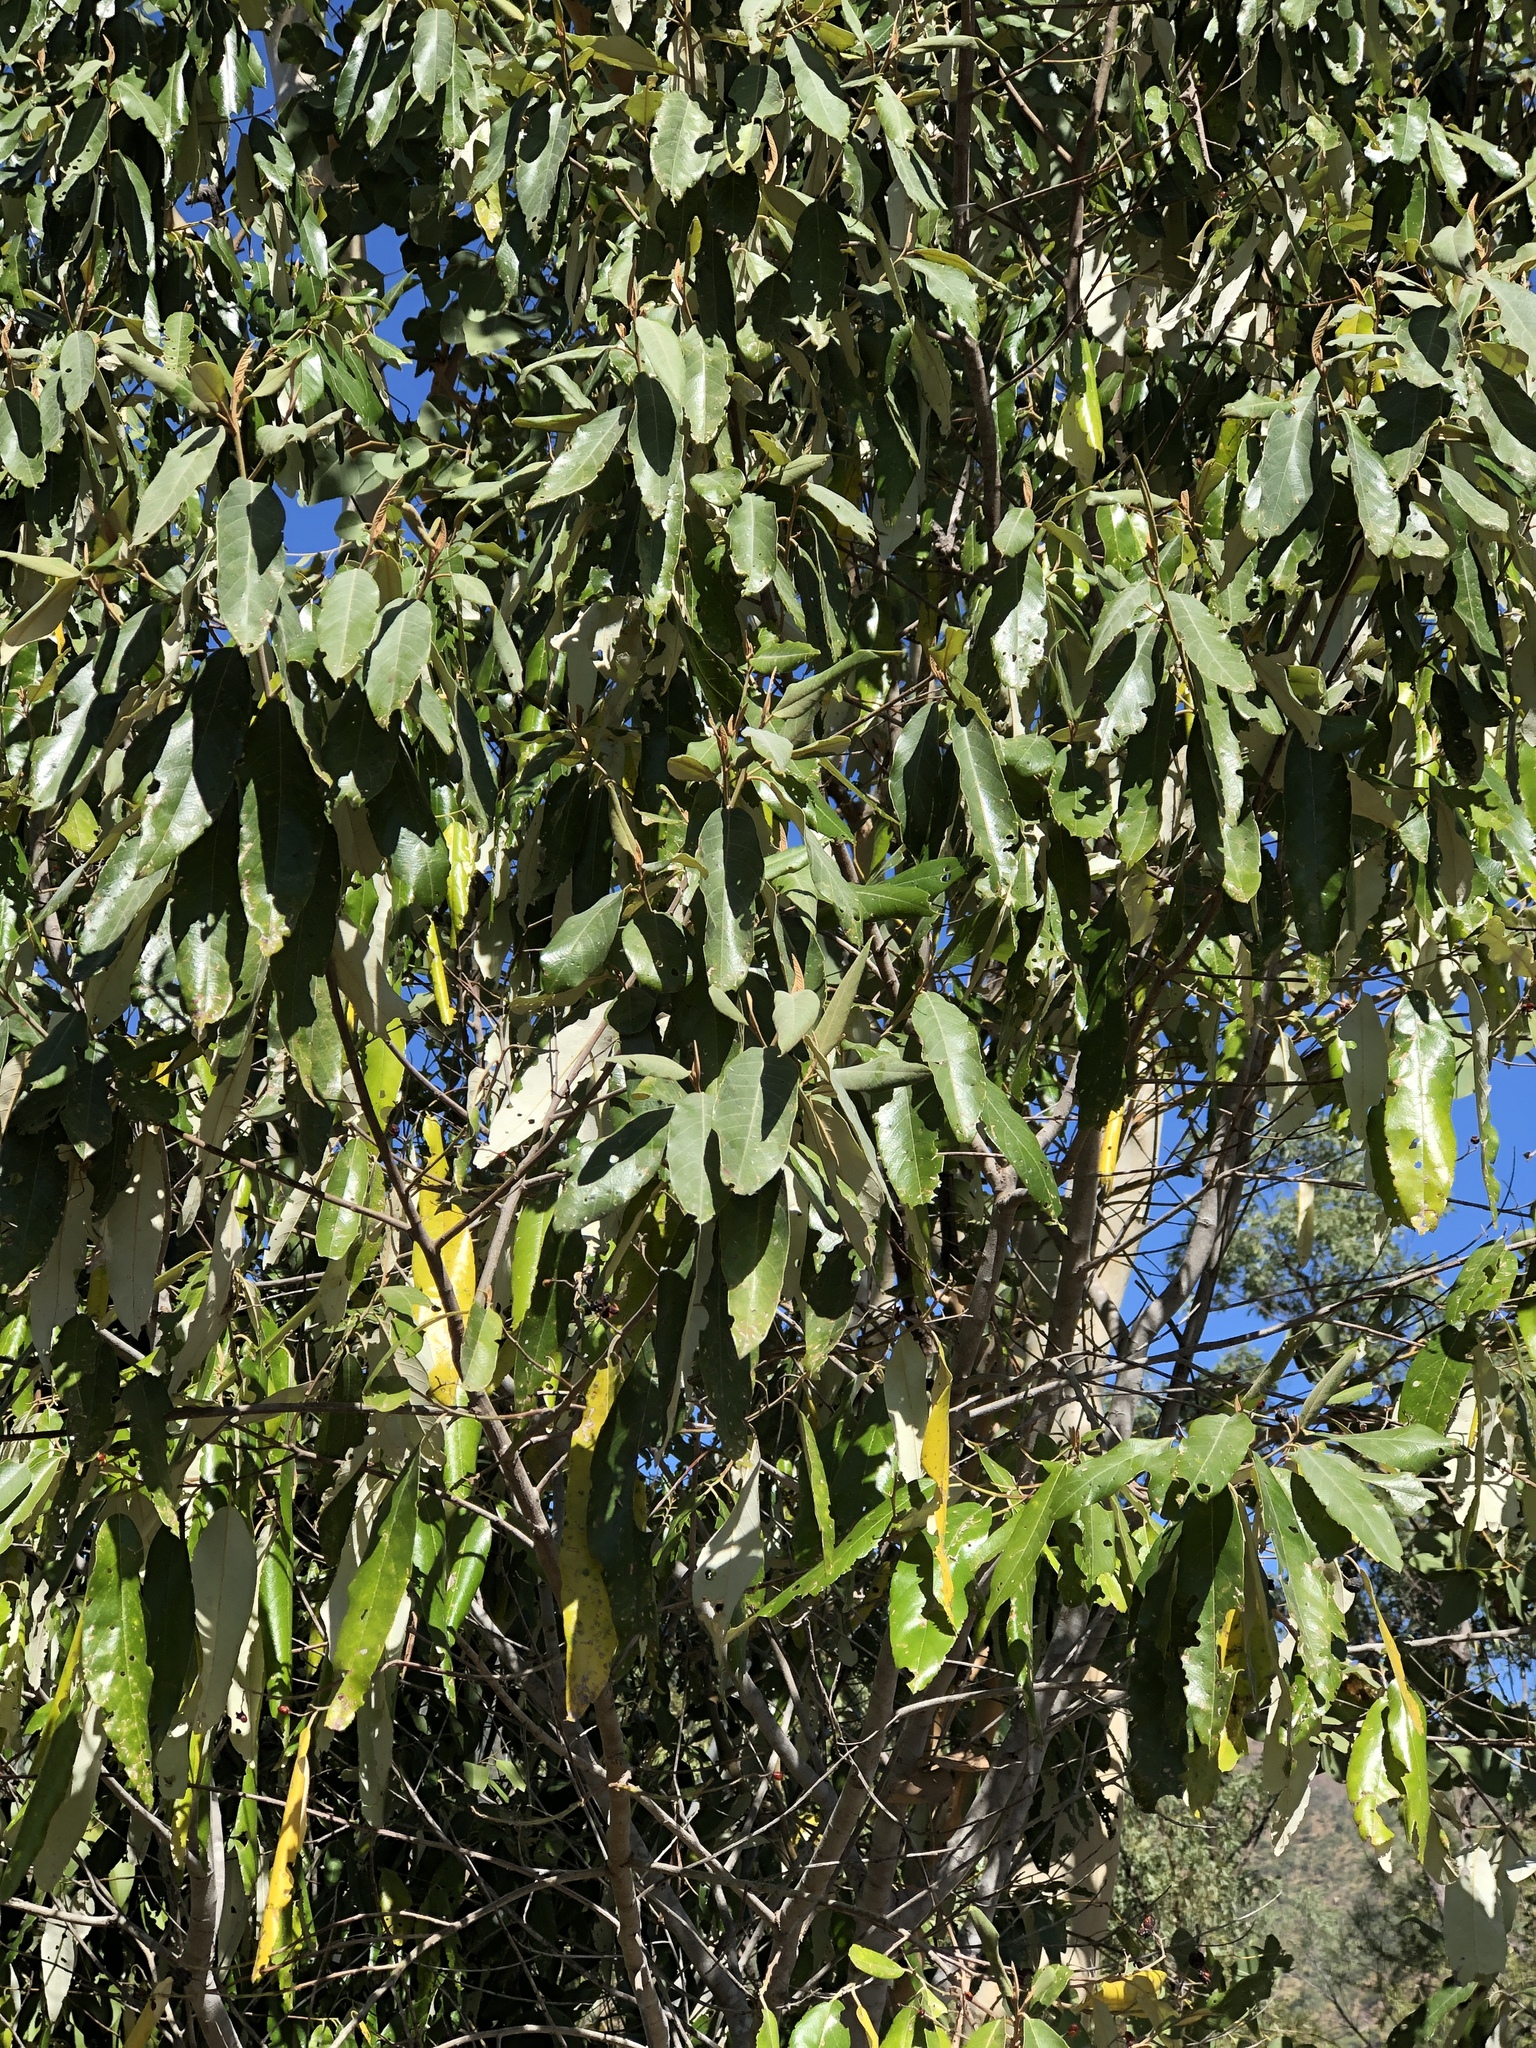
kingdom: Plantae
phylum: Tracheophyta
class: Magnoliopsida
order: Rosales
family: Rhamnaceae
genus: Alphitonia
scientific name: Alphitonia excelsa
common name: Red ash
